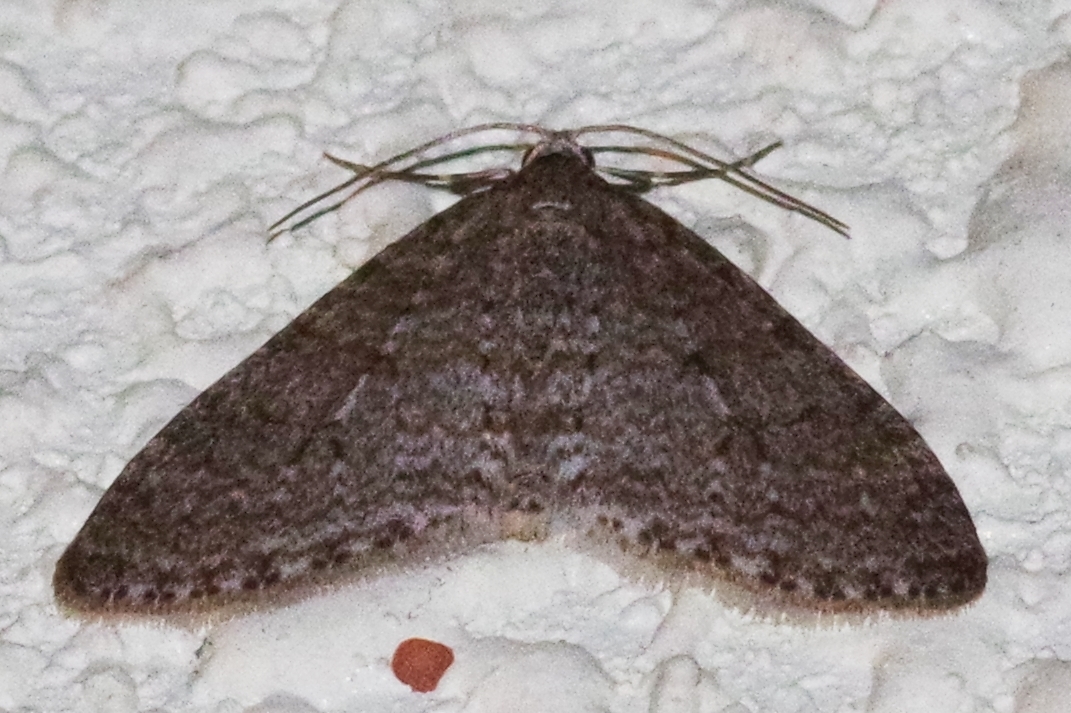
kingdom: Animalia
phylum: Arthropoda
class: Insecta
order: Lepidoptera
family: Geometridae
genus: Trichopteryx
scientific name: Trichopteryx microloba
